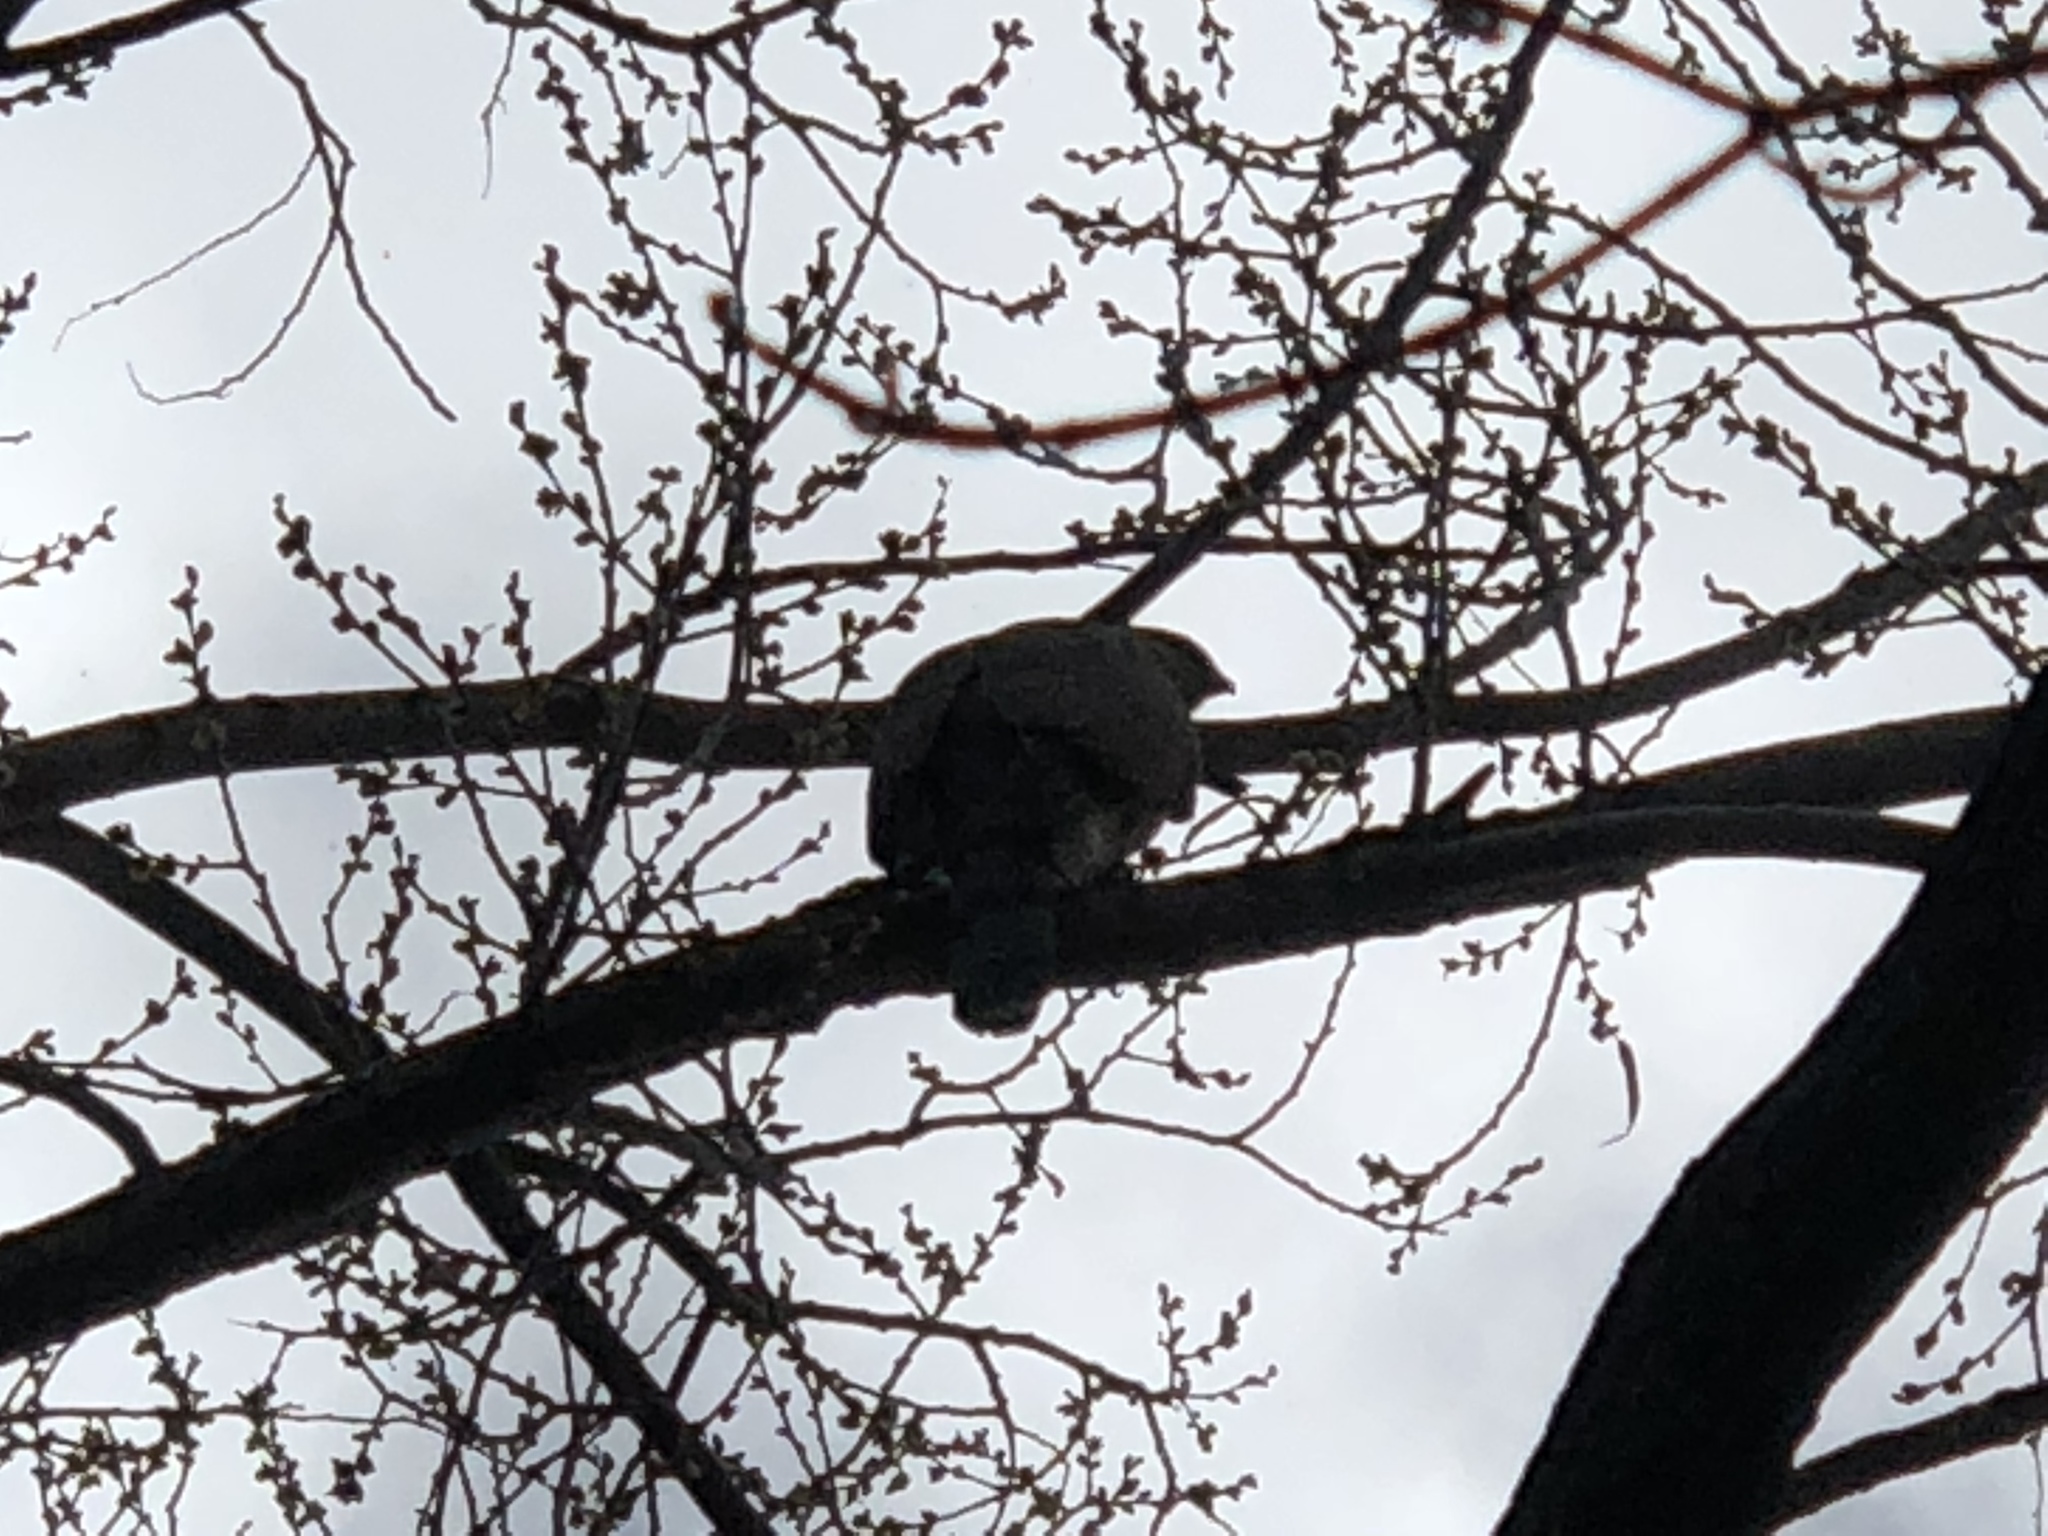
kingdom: Animalia
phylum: Chordata
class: Aves
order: Accipitriformes
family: Accipitridae
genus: Accipiter
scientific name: Accipiter cooperii
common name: Cooper's hawk
